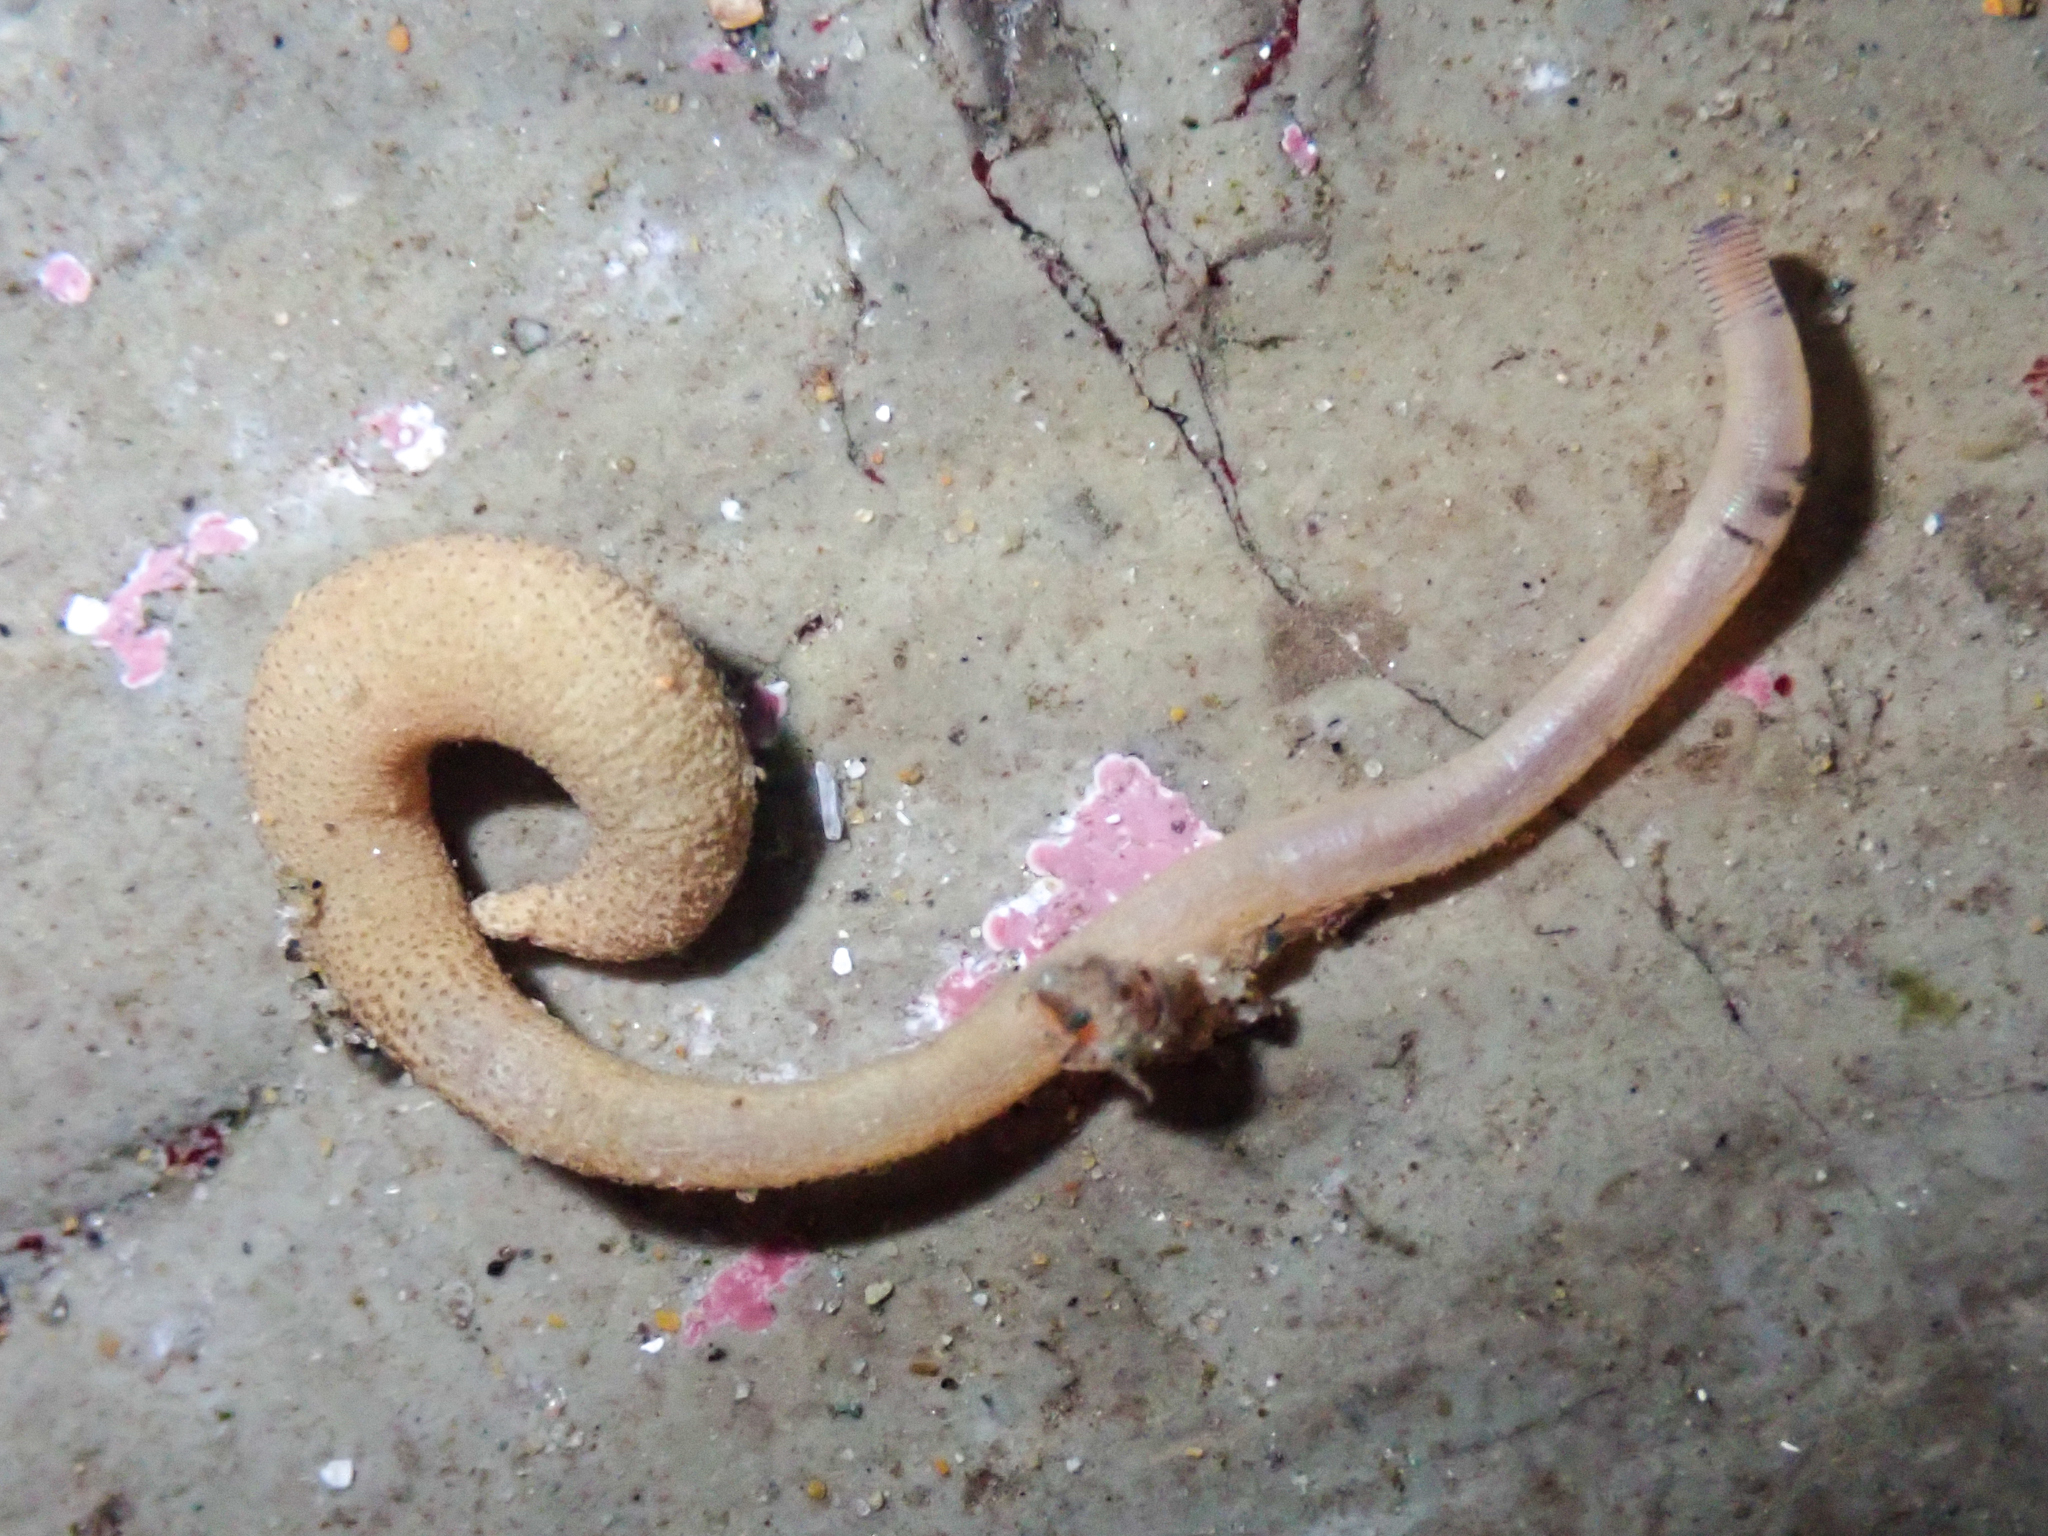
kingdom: Animalia
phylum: Sipuncula
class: Phascolosomatidea
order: Phascolosomatiformes
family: Phascolosomatidae
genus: Phascolosoma
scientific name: Phascolosoma agassizii
